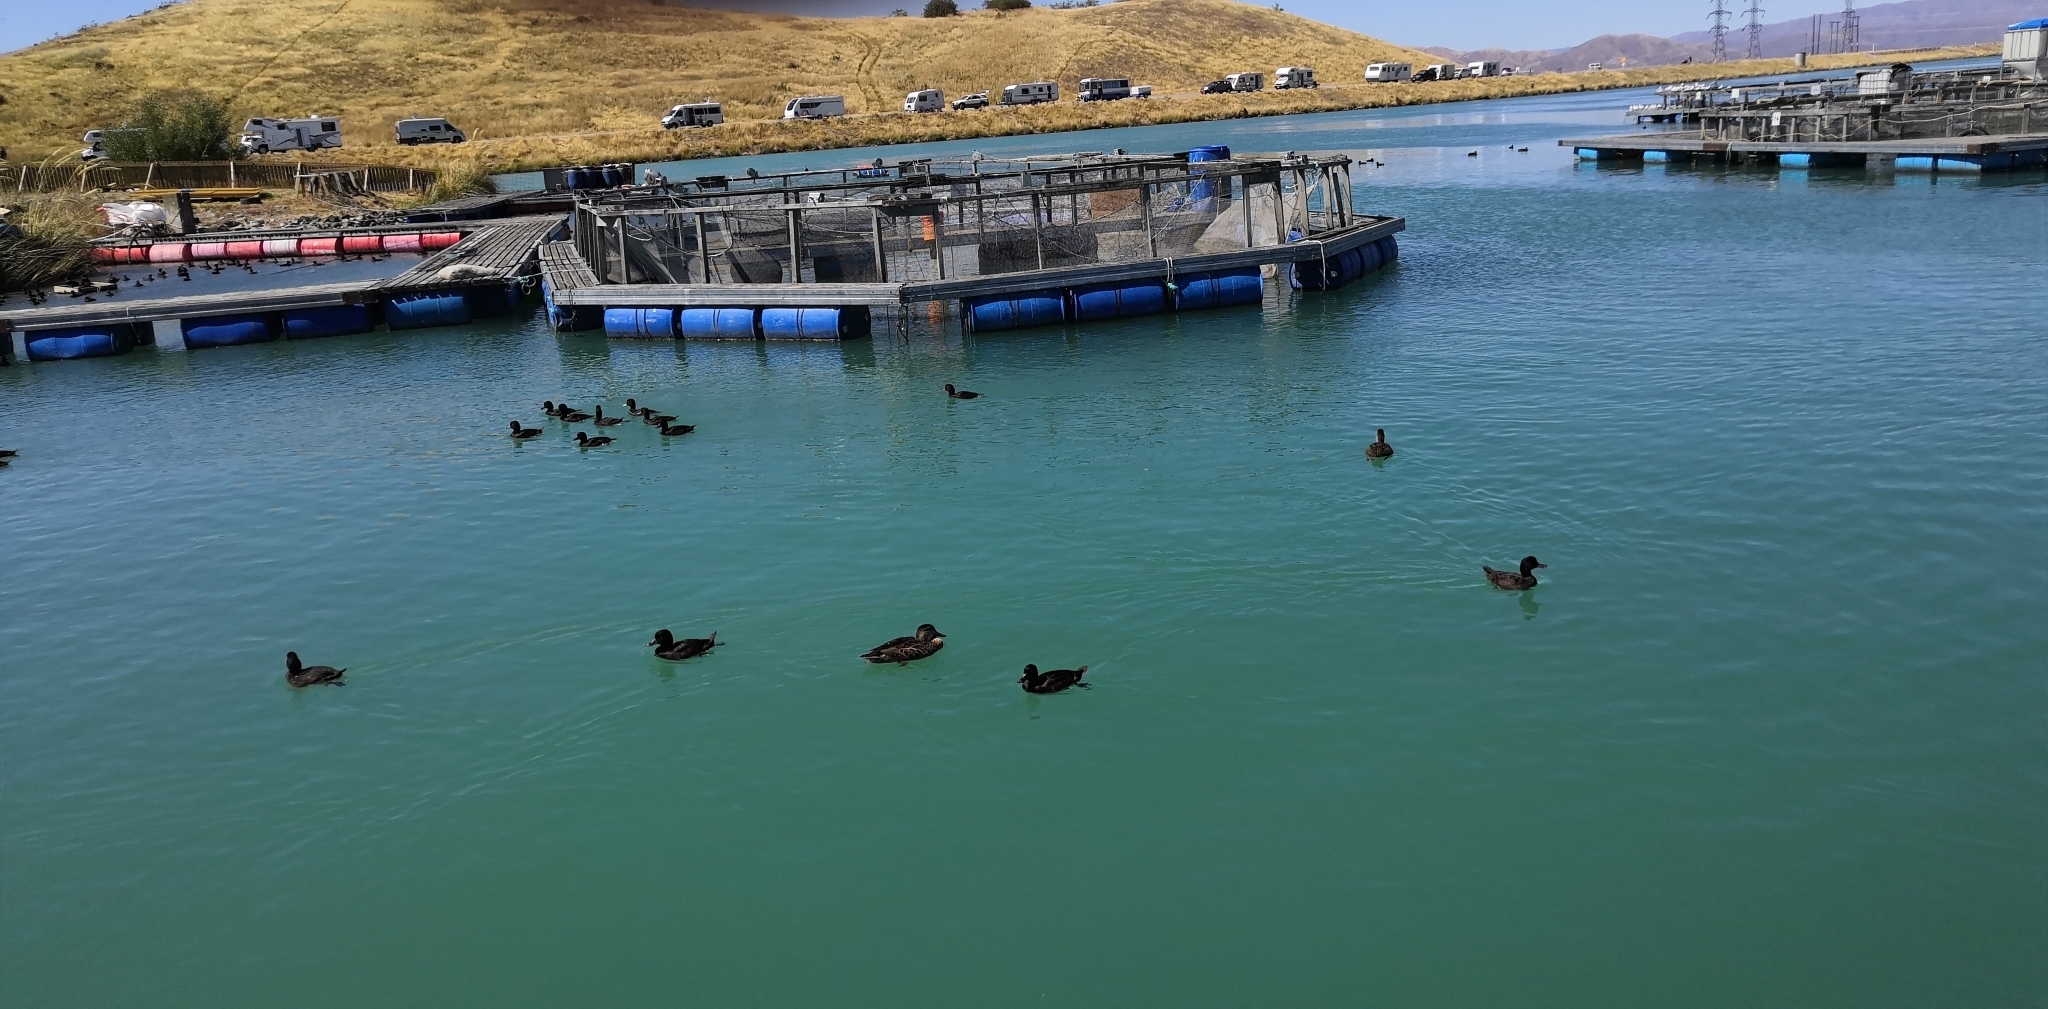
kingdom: Animalia
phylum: Chordata
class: Aves
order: Anseriformes
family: Anatidae
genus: Aythya
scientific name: Aythya novaeseelandiae
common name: New zealand scaup
